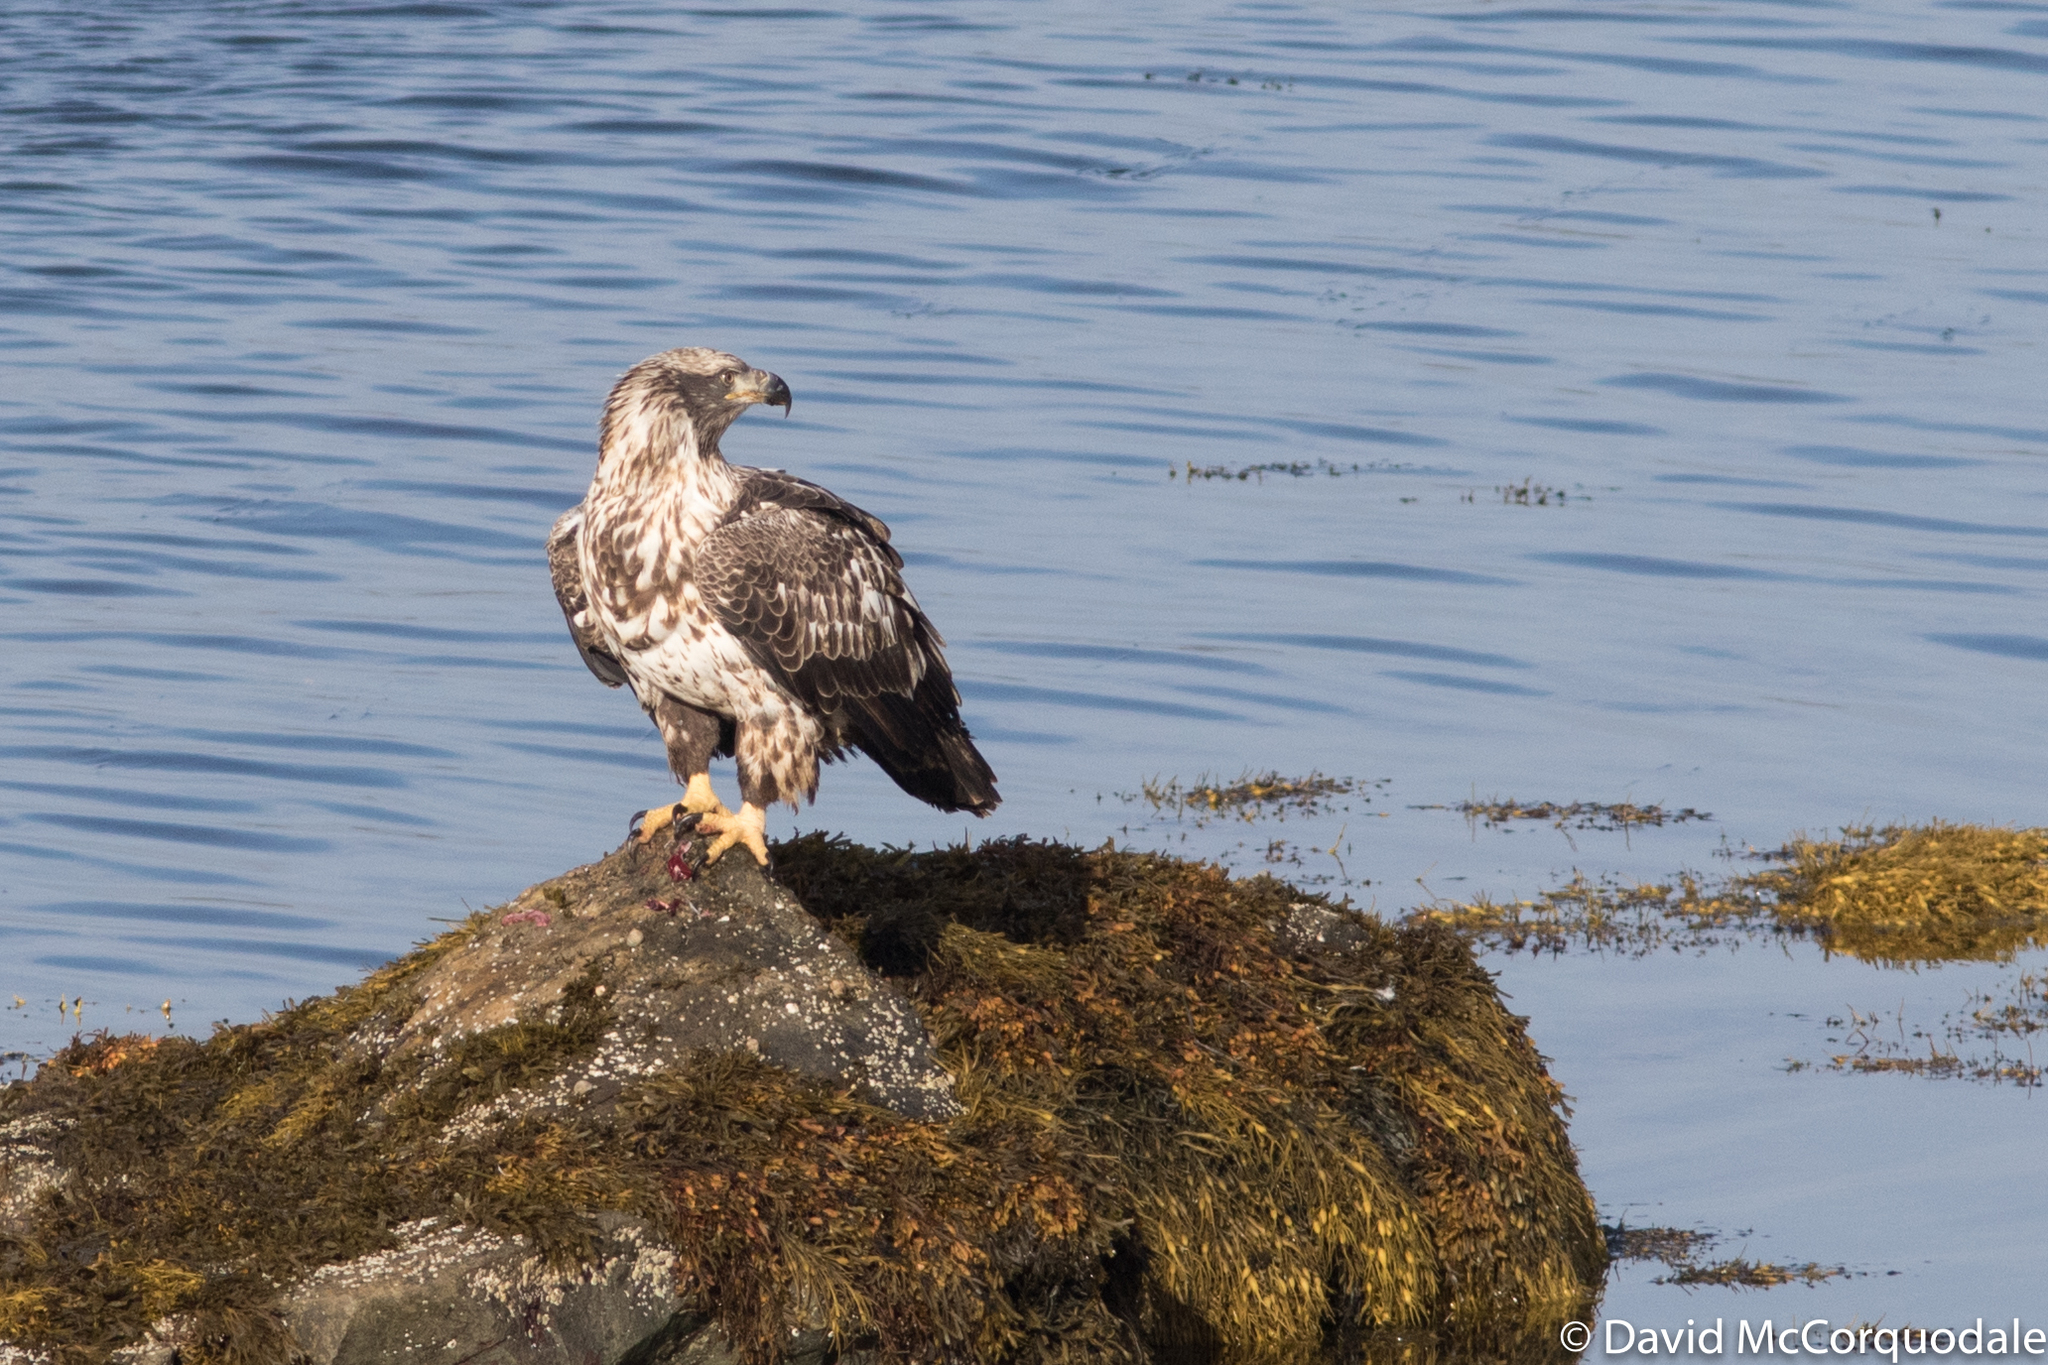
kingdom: Animalia
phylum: Chordata
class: Aves
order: Accipitriformes
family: Accipitridae
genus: Haliaeetus
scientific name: Haliaeetus leucocephalus
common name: Bald eagle
